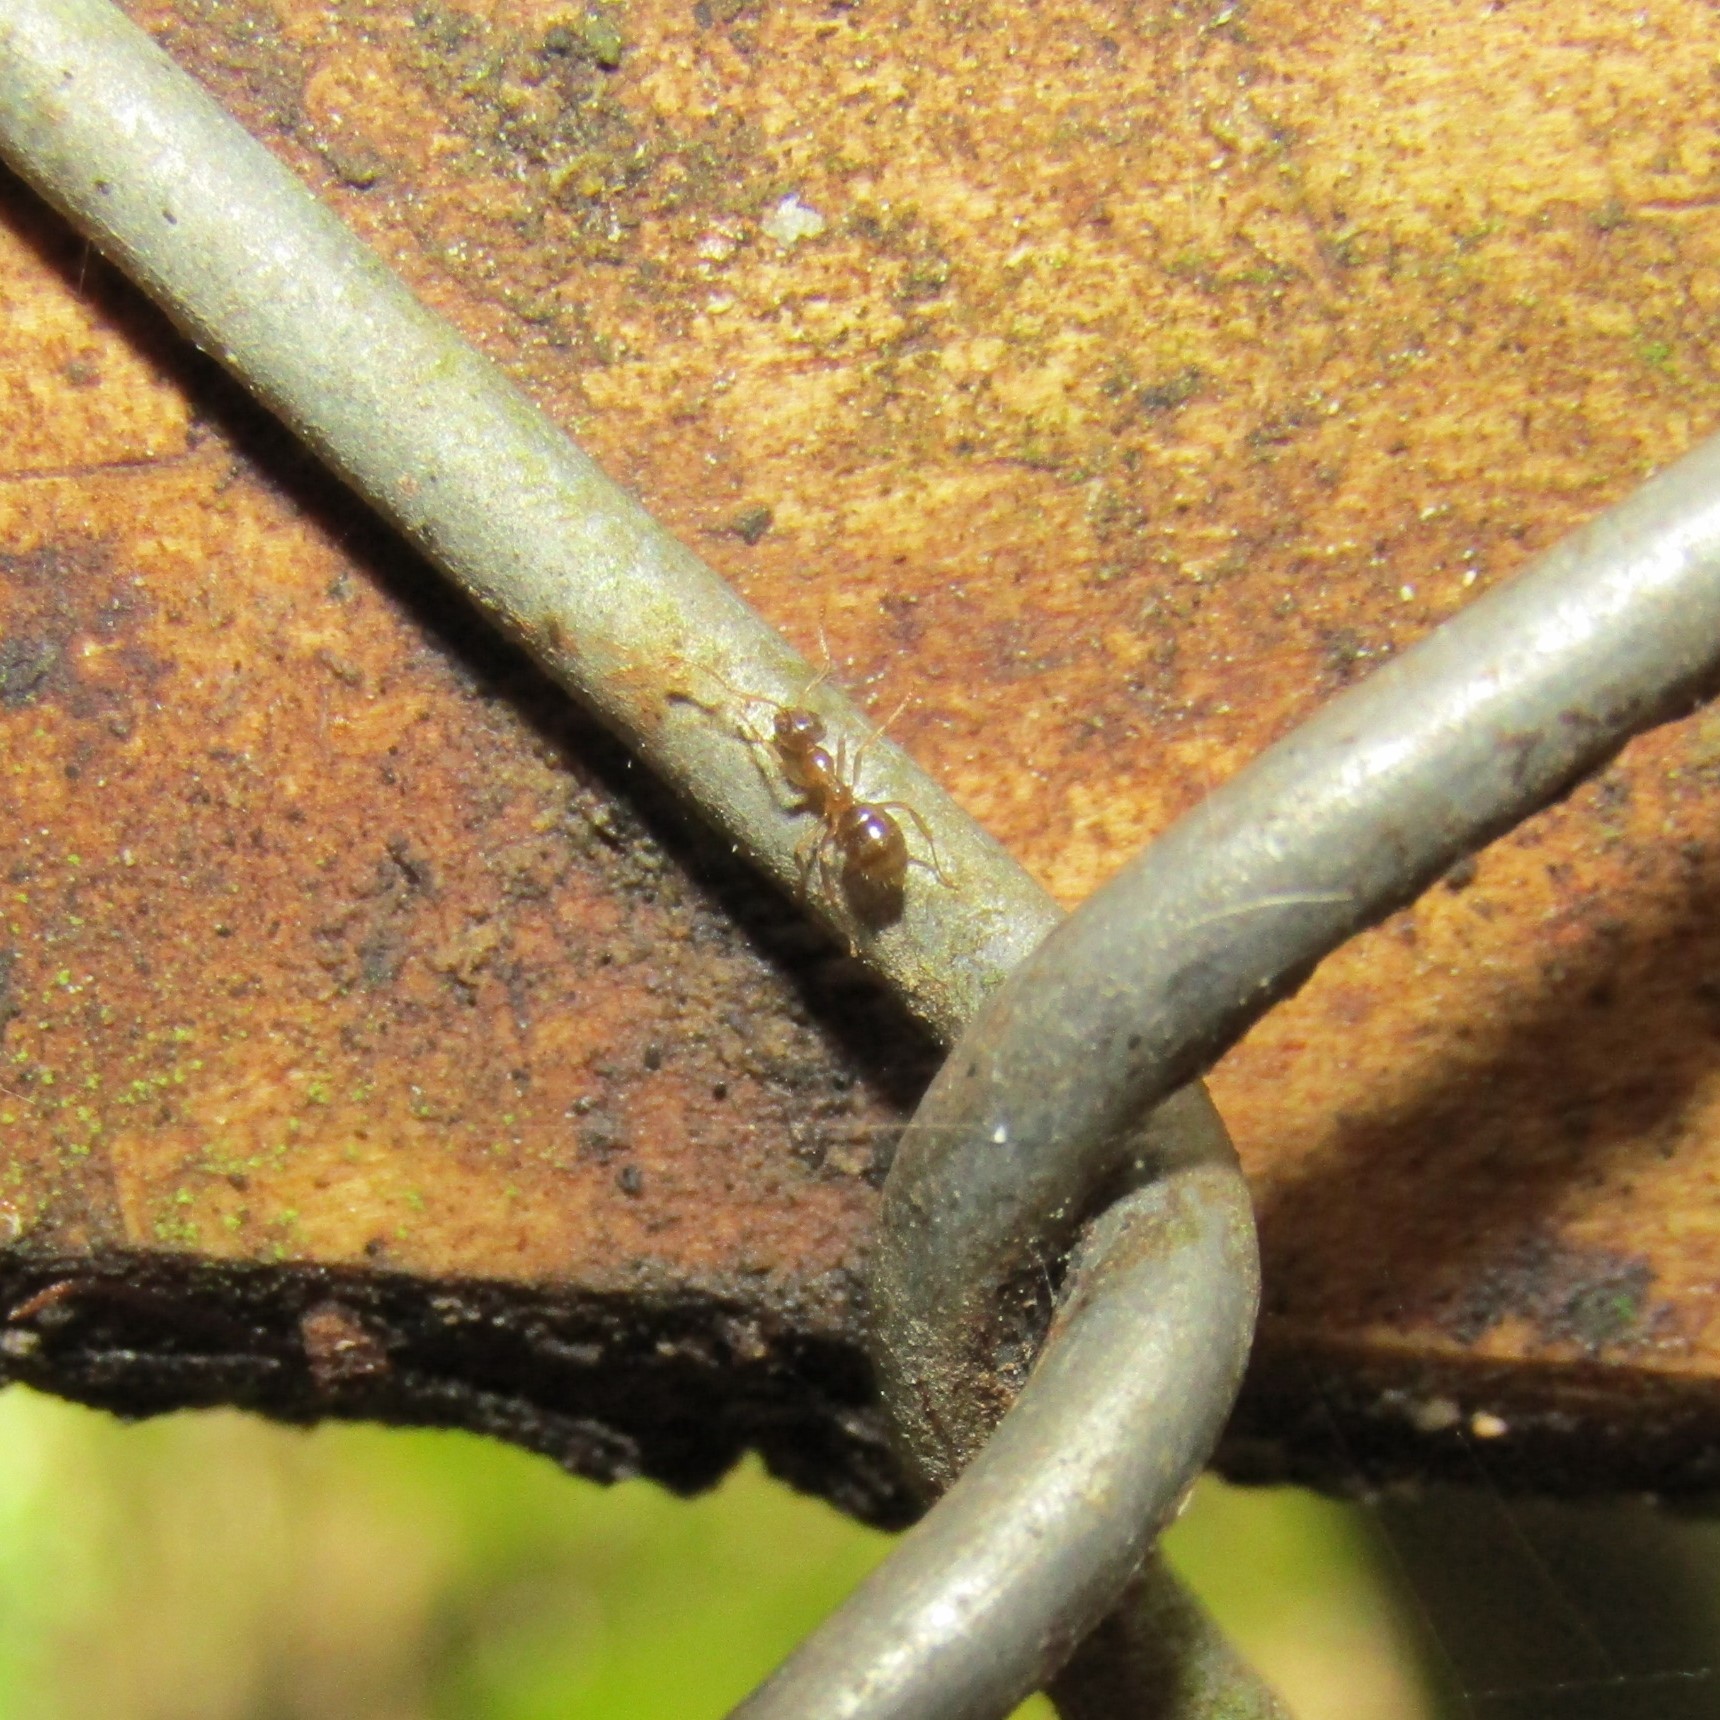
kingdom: Animalia
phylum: Arthropoda
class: Insecta
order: Hymenoptera
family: Formicidae
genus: Prolasius
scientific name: Prolasius advenus
